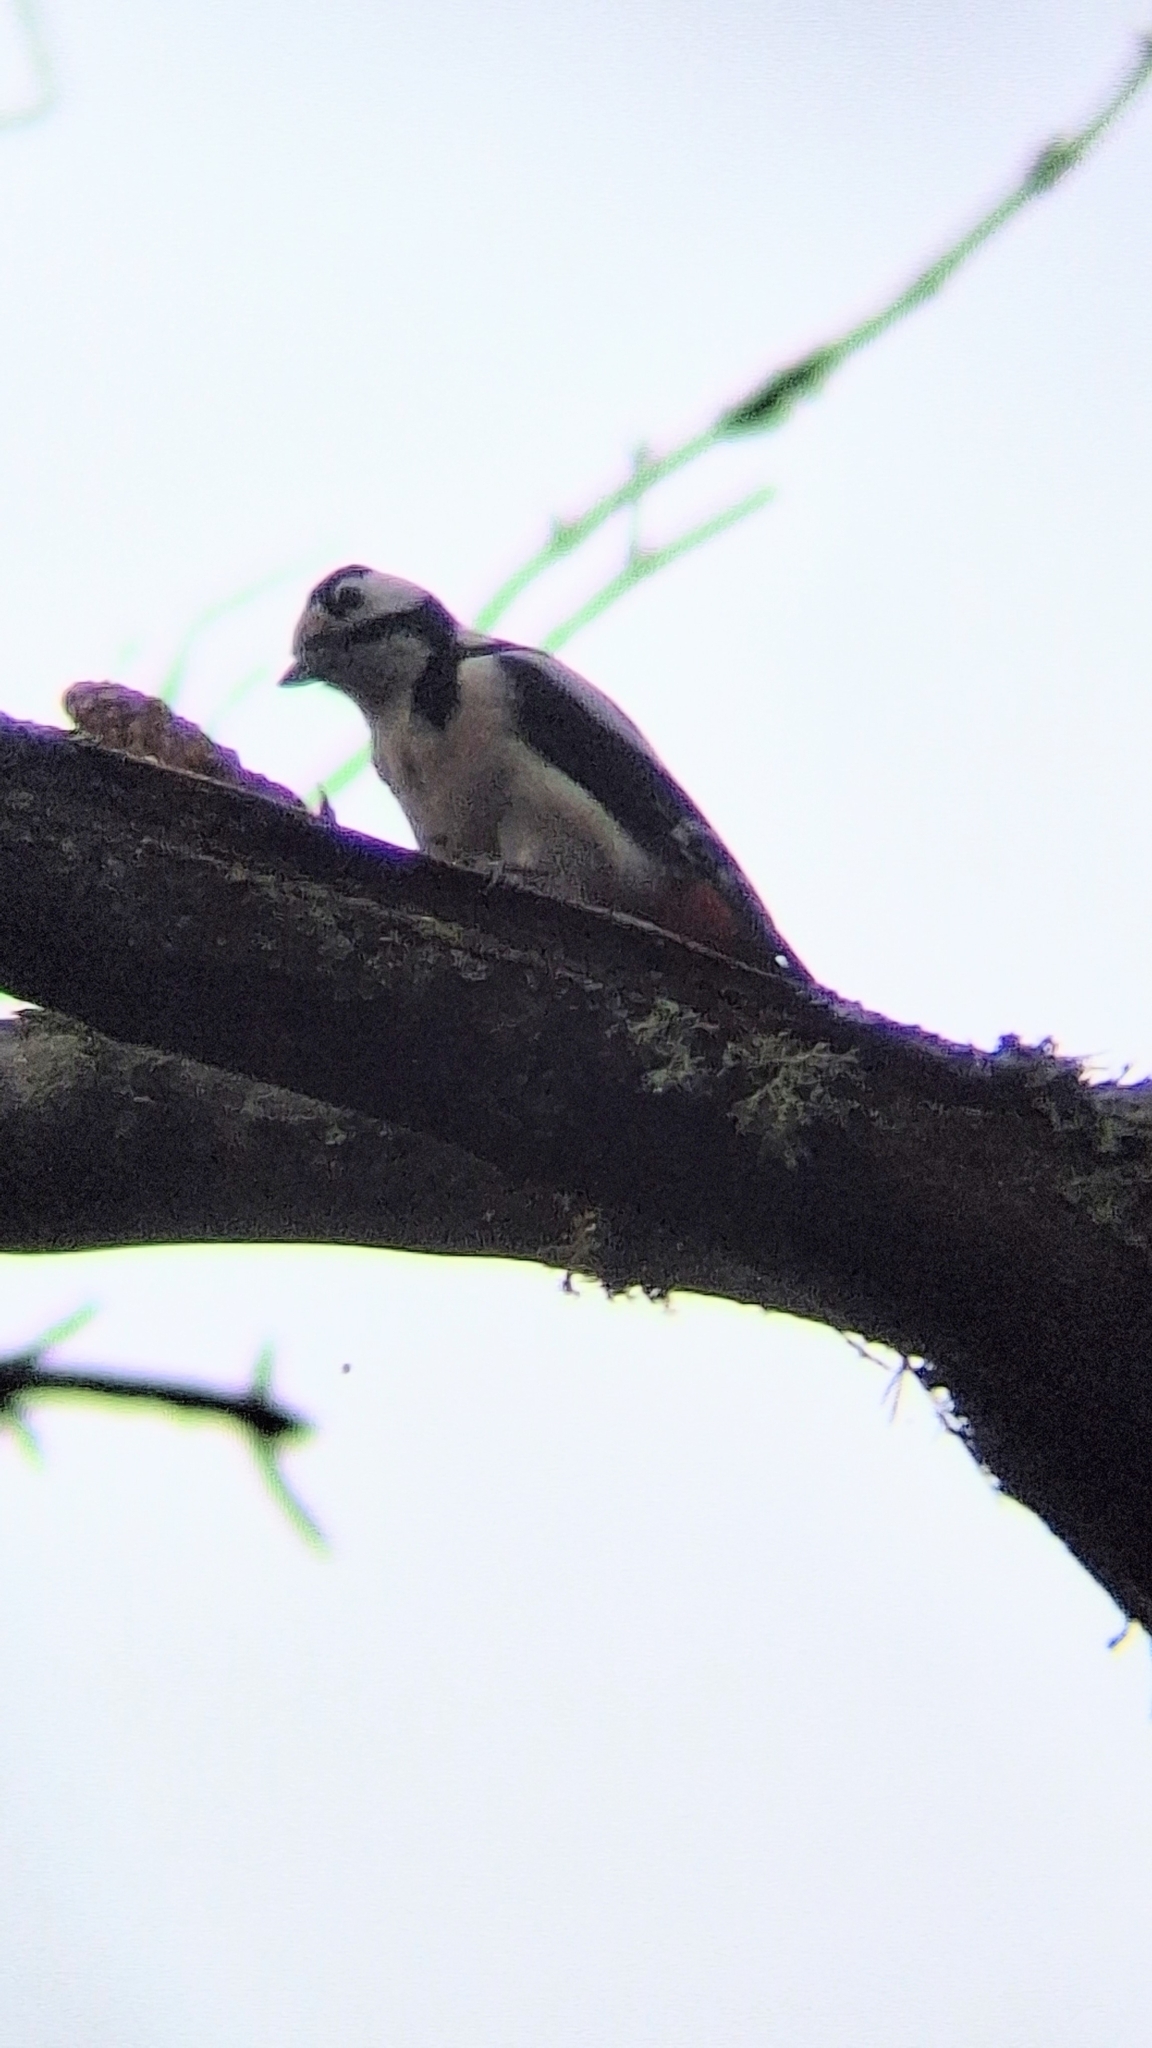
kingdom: Animalia
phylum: Chordata
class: Aves
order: Piciformes
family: Picidae
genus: Dendrocopos
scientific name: Dendrocopos major
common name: Great spotted woodpecker
